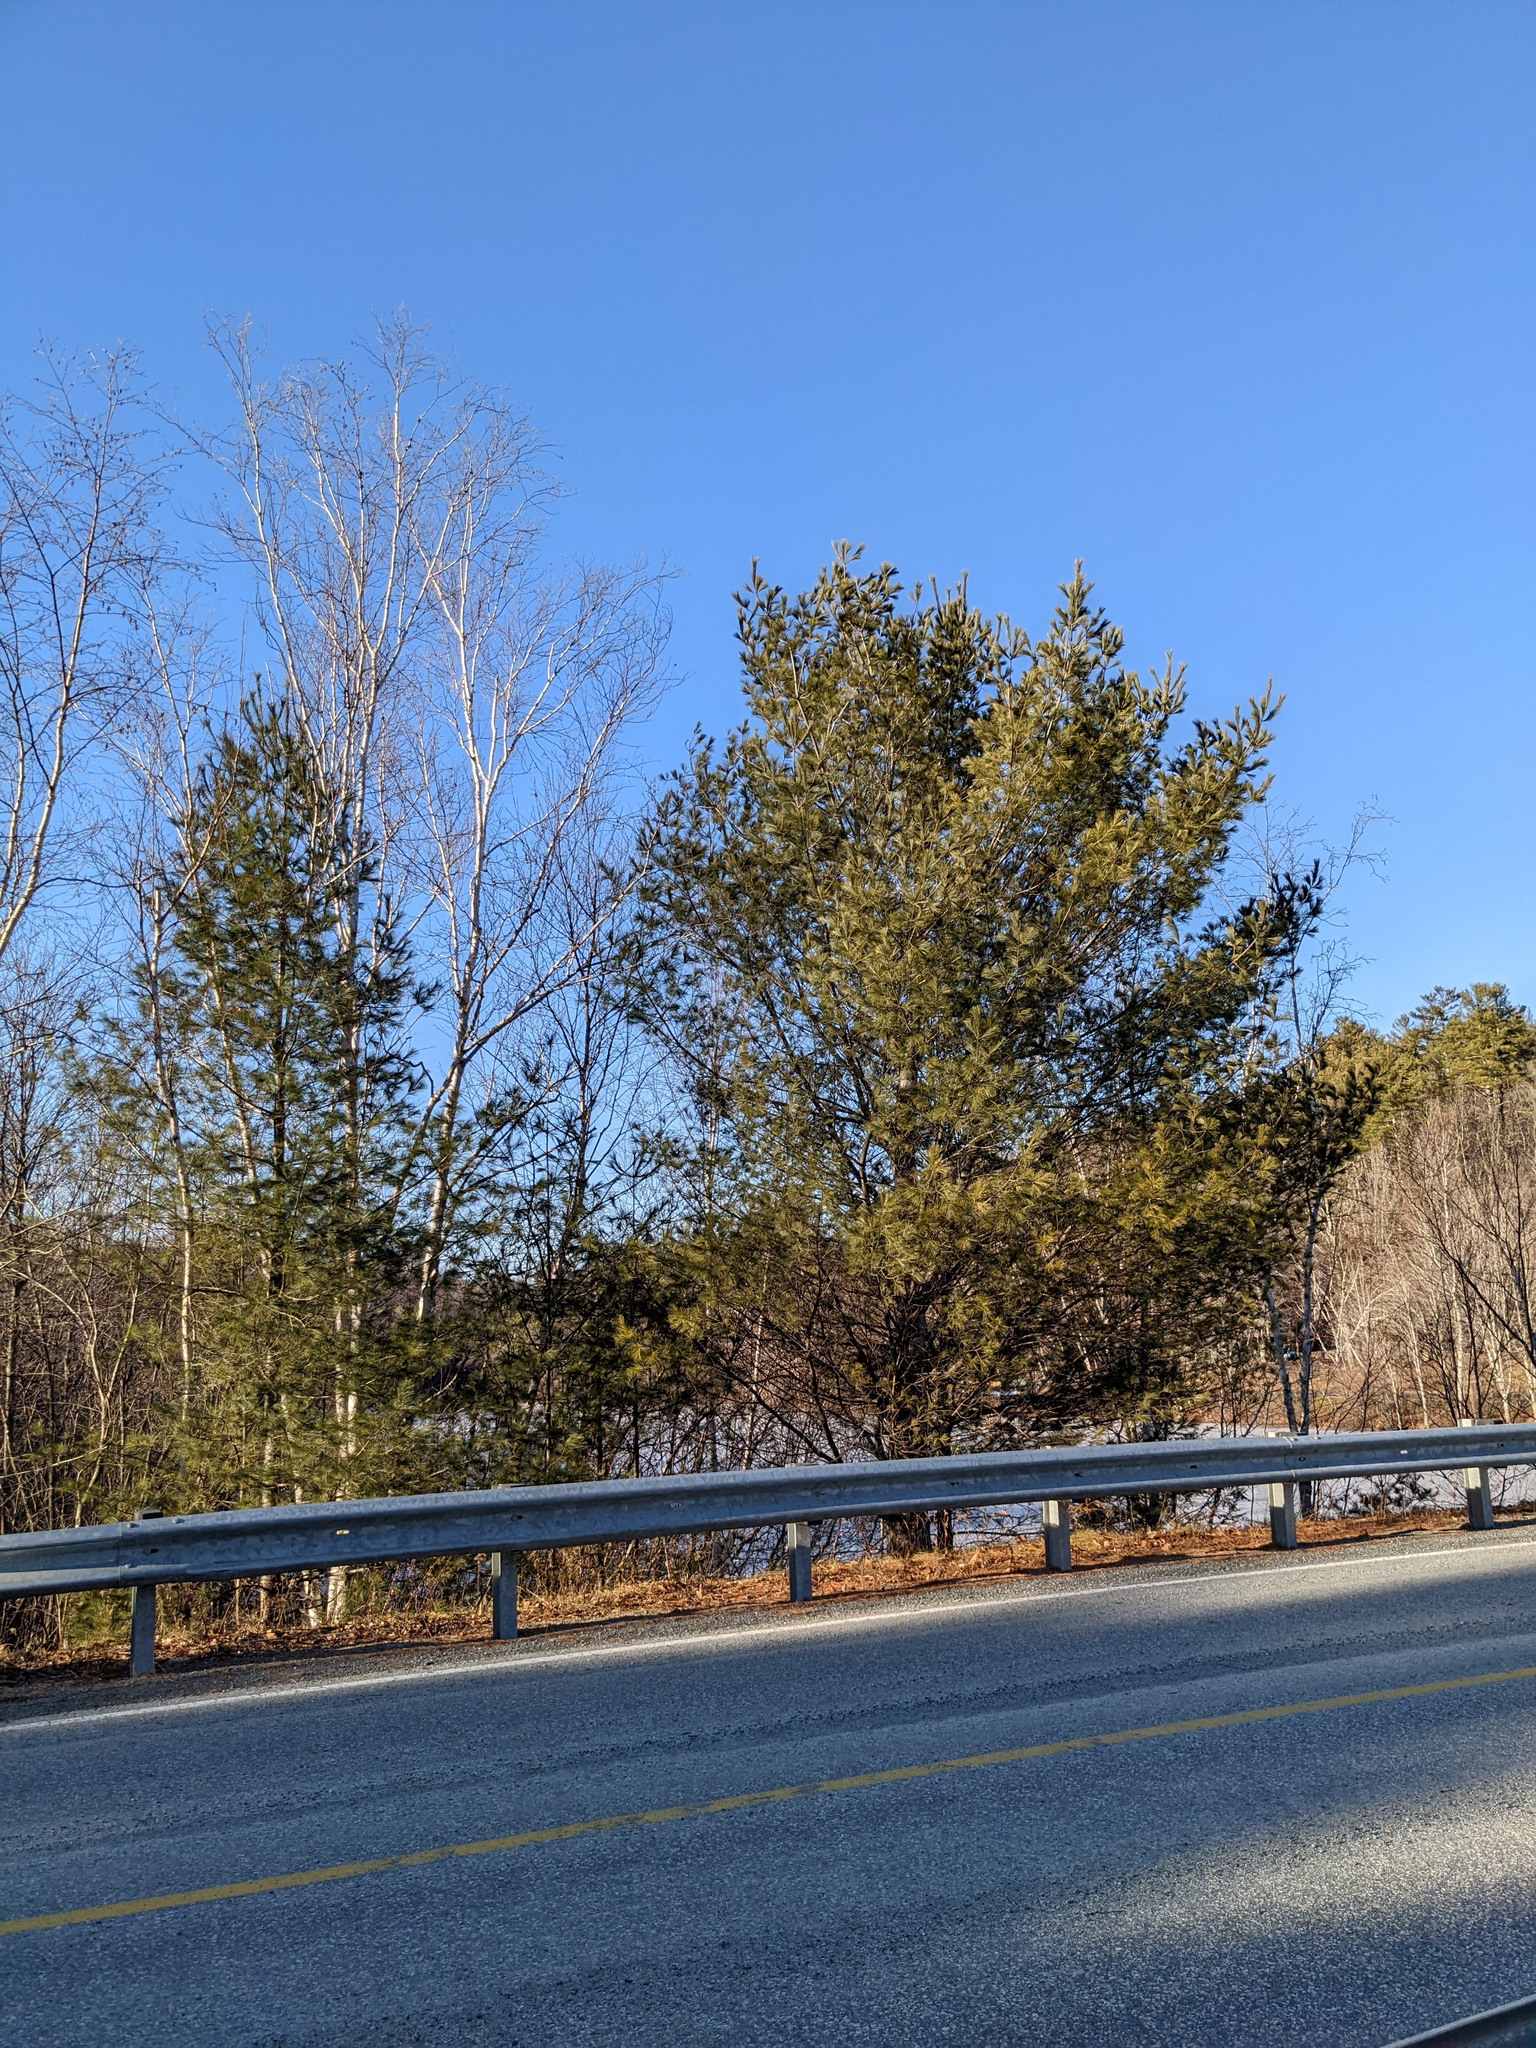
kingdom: Plantae
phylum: Tracheophyta
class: Pinopsida
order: Pinales
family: Pinaceae
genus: Pinus
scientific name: Pinus strobus
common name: Weymouth pine
